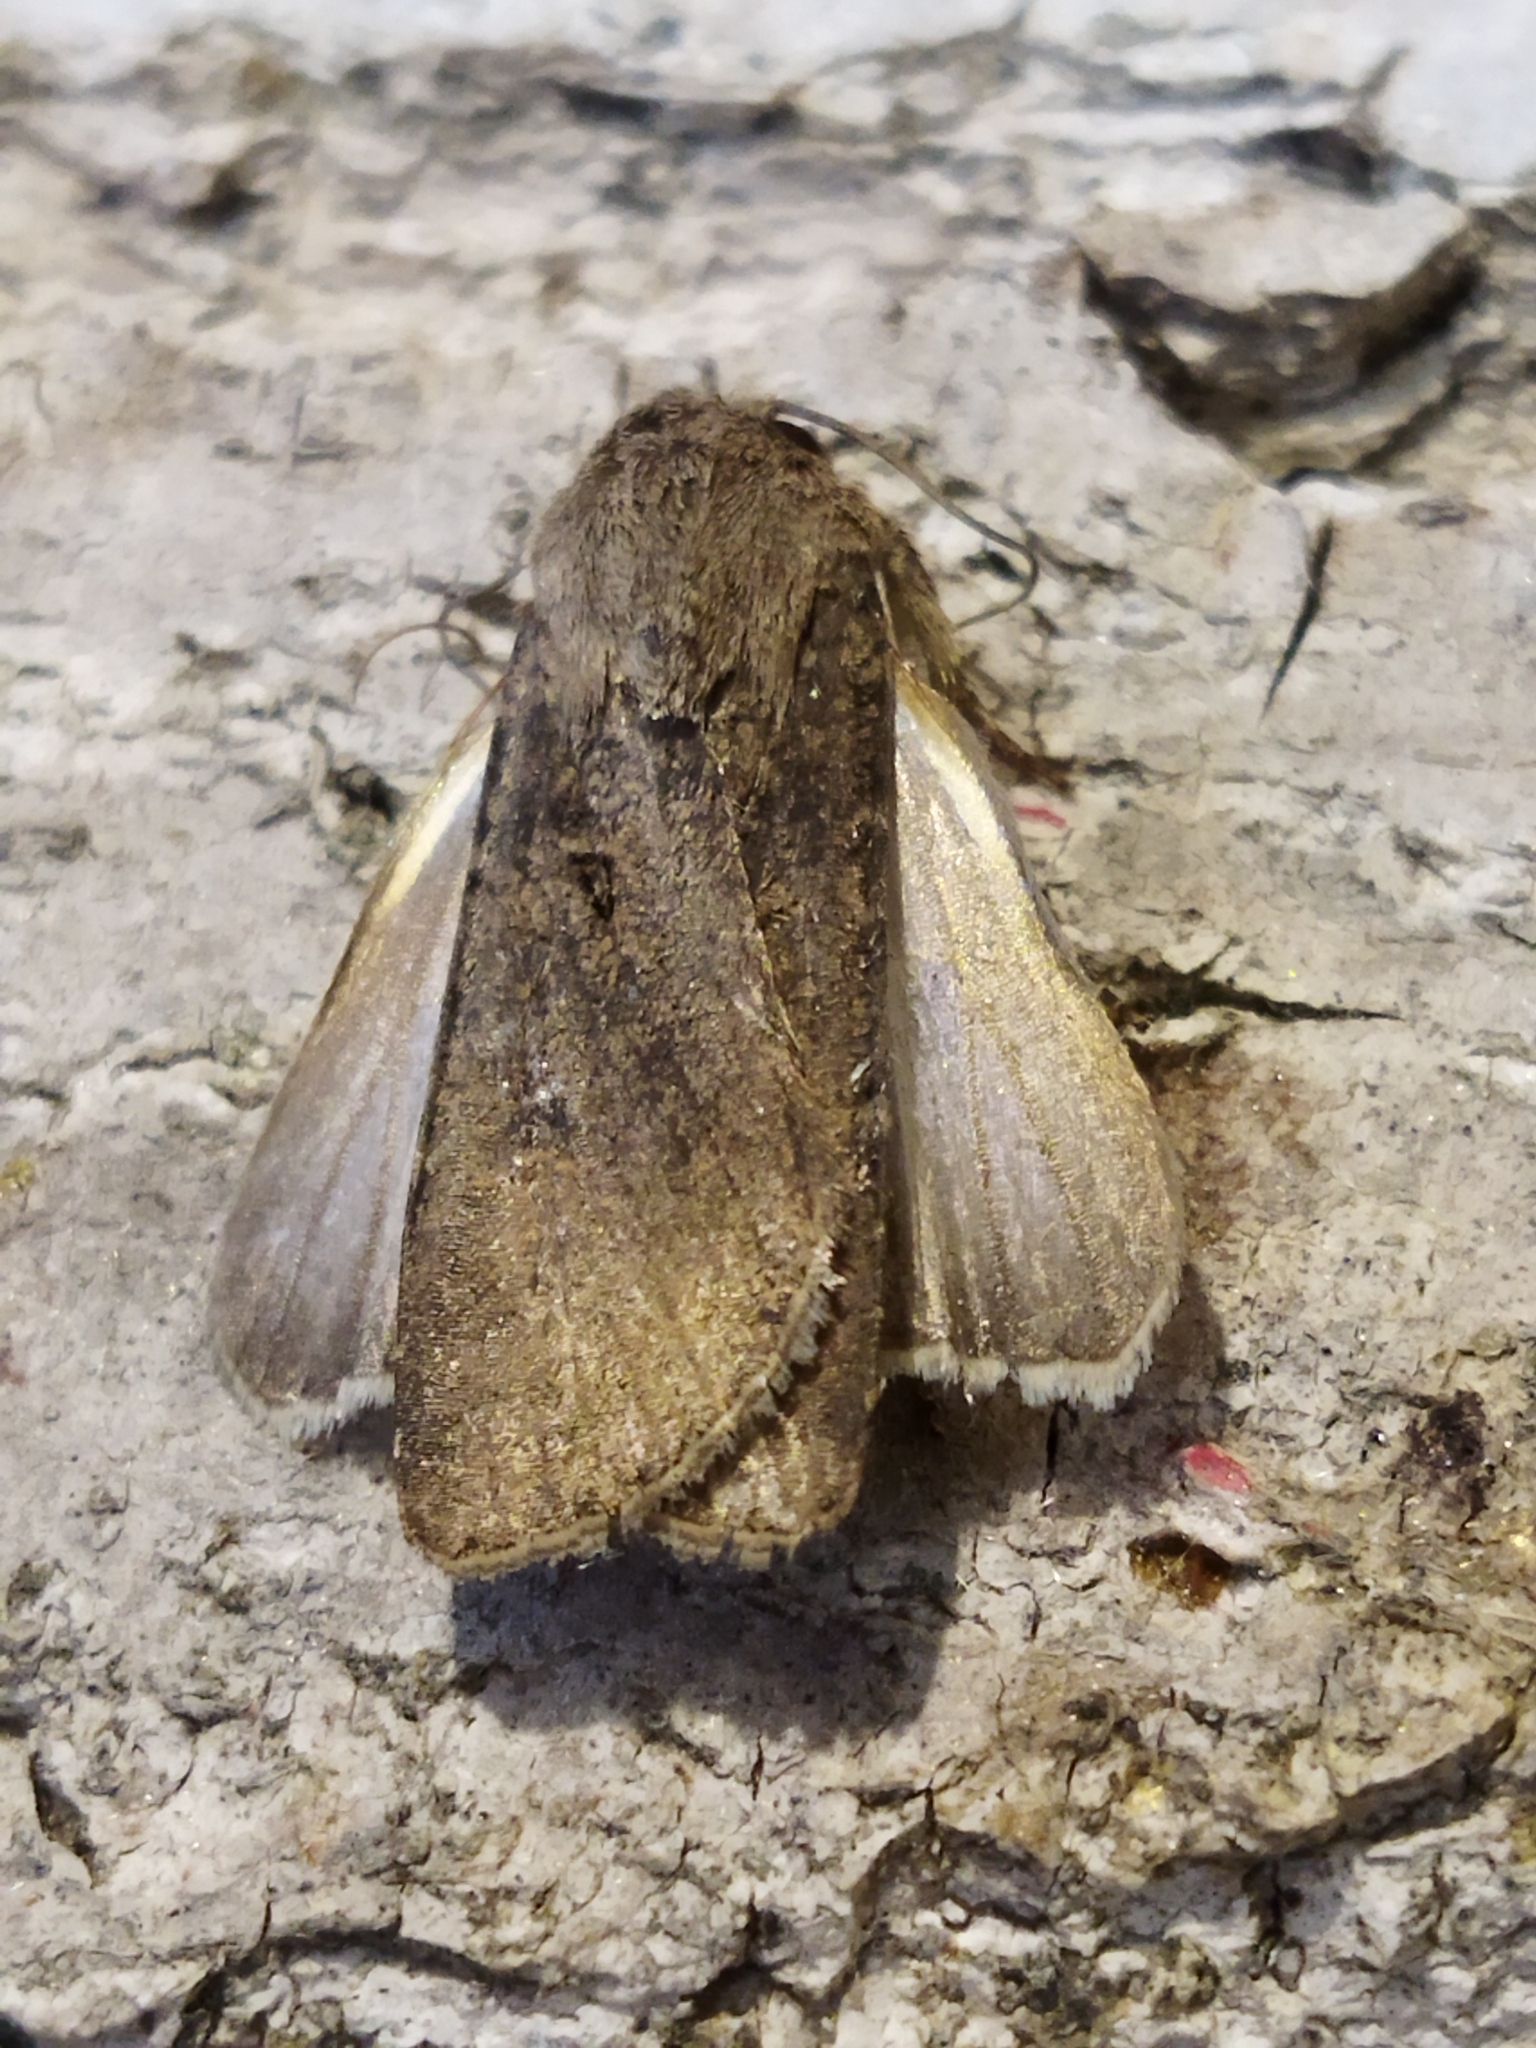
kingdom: Animalia
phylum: Arthropoda
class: Insecta
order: Lepidoptera
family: Noctuidae
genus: Agrotis
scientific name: Agrotis segetum
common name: Turnip moth
